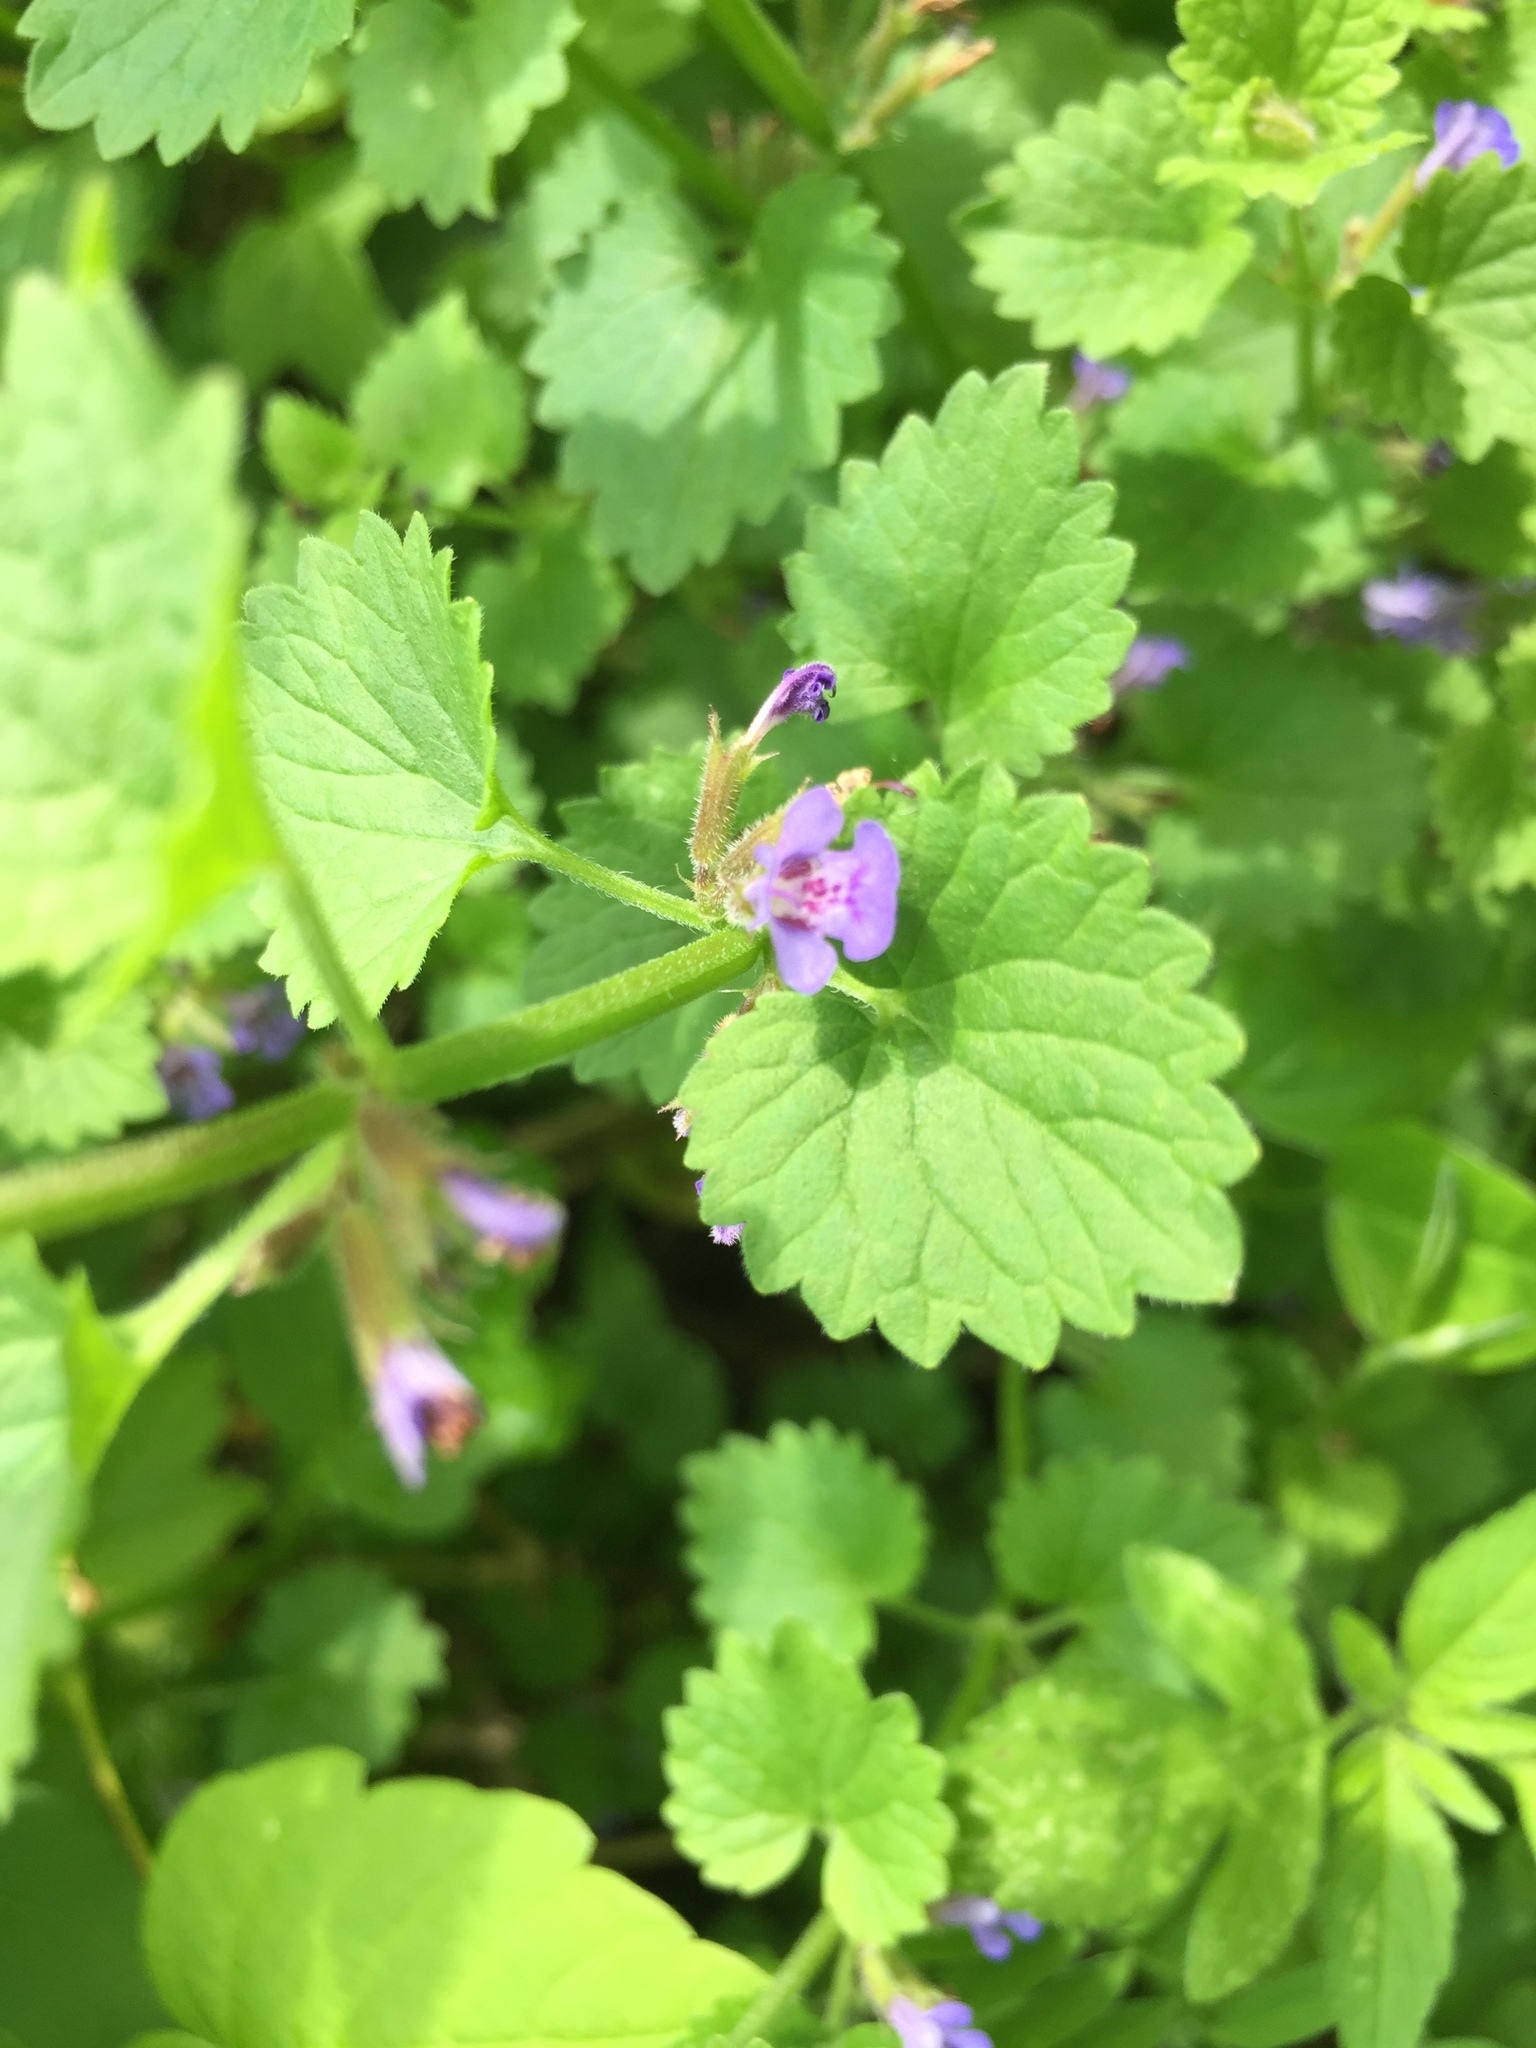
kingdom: Plantae
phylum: Tracheophyta
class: Magnoliopsida
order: Lamiales
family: Lamiaceae
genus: Glechoma
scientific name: Glechoma hederacea
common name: Ground ivy
